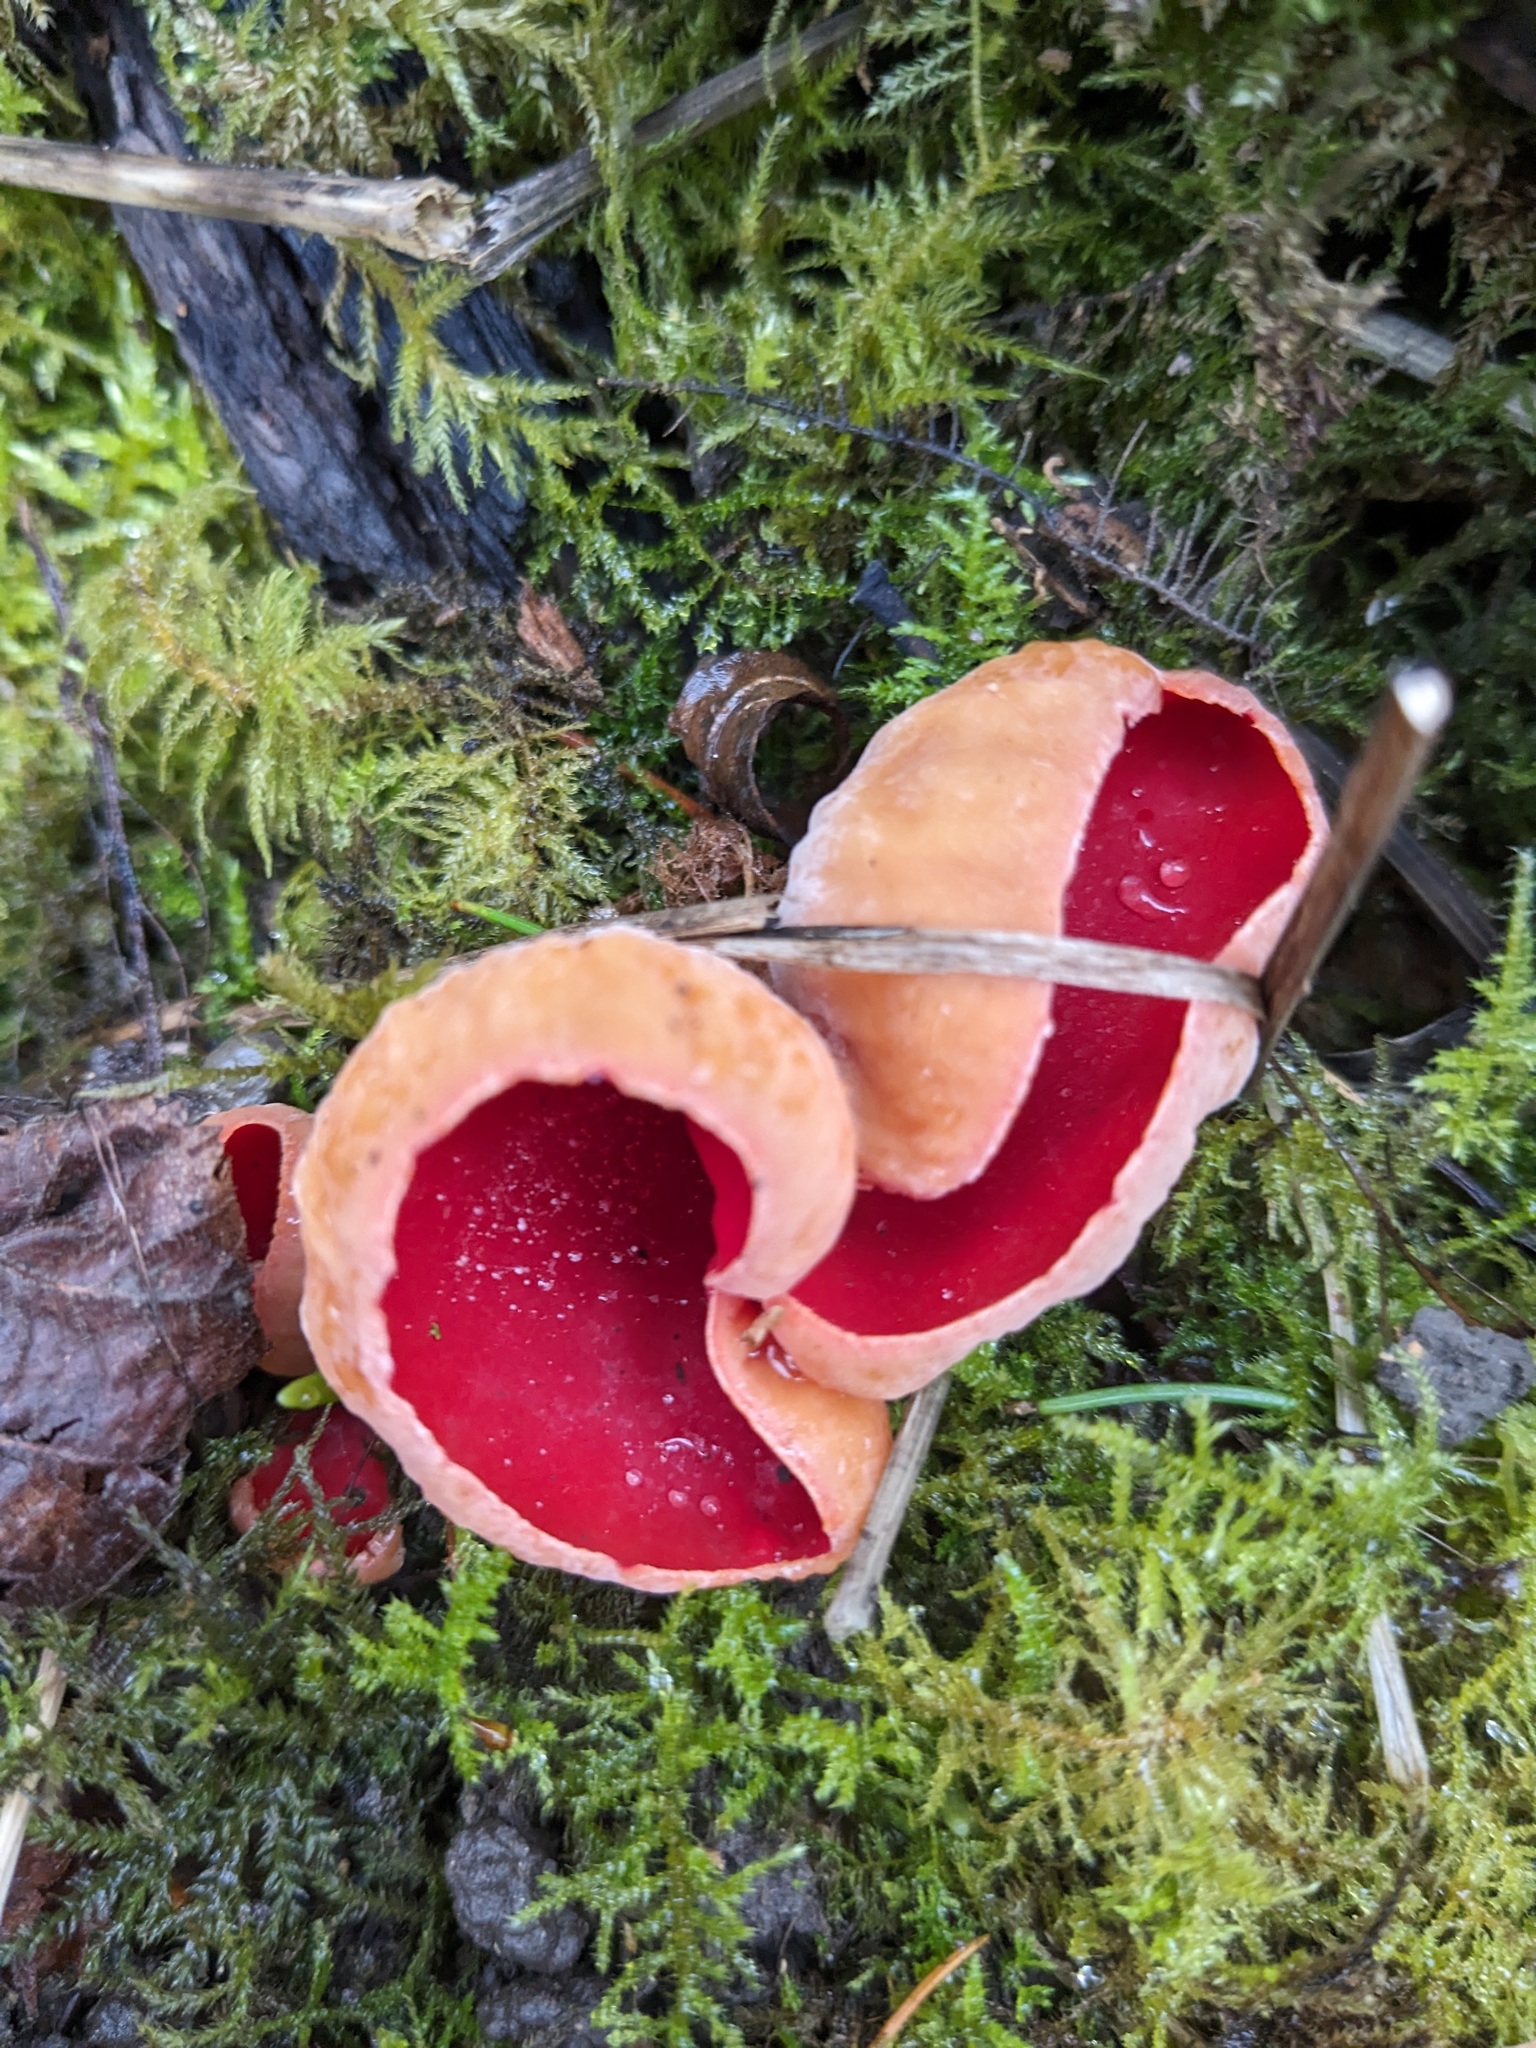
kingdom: Fungi
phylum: Ascomycota
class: Pezizomycetes
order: Pezizales
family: Sarcoscyphaceae
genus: Sarcoscypha
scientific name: Sarcoscypha
